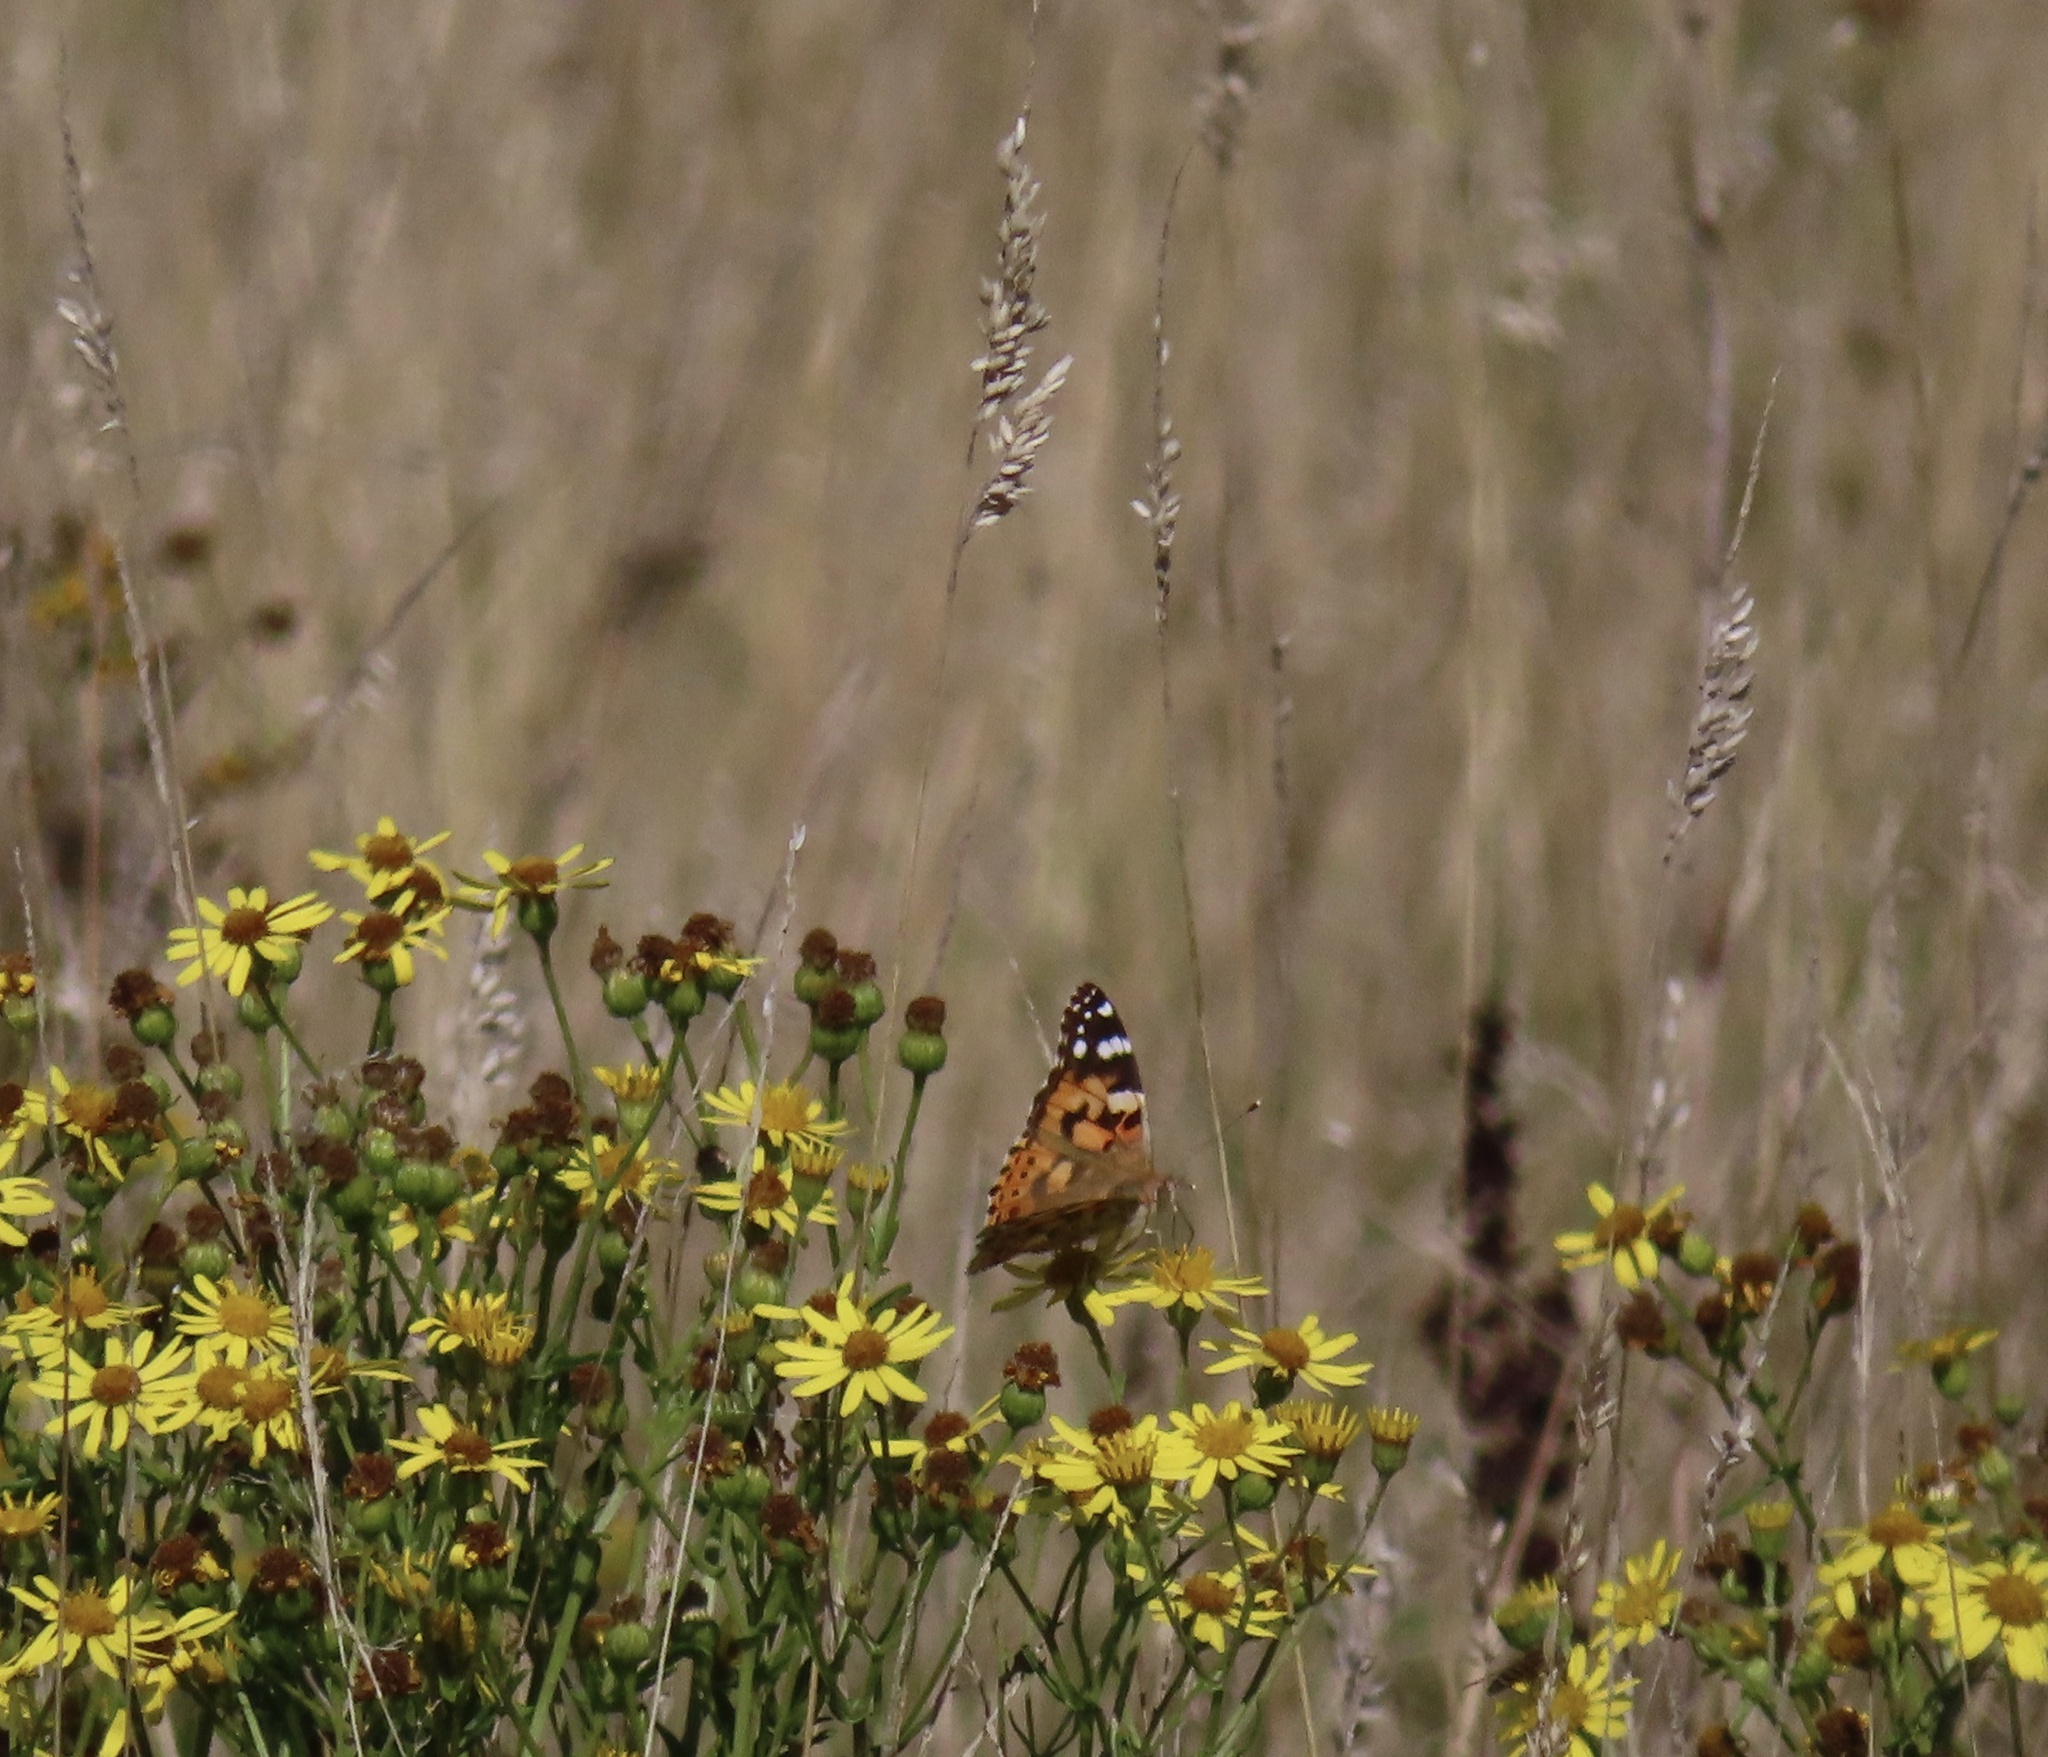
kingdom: Animalia
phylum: Arthropoda
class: Insecta
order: Lepidoptera
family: Nymphalidae
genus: Vanessa
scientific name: Vanessa cardui
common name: Painted lady
